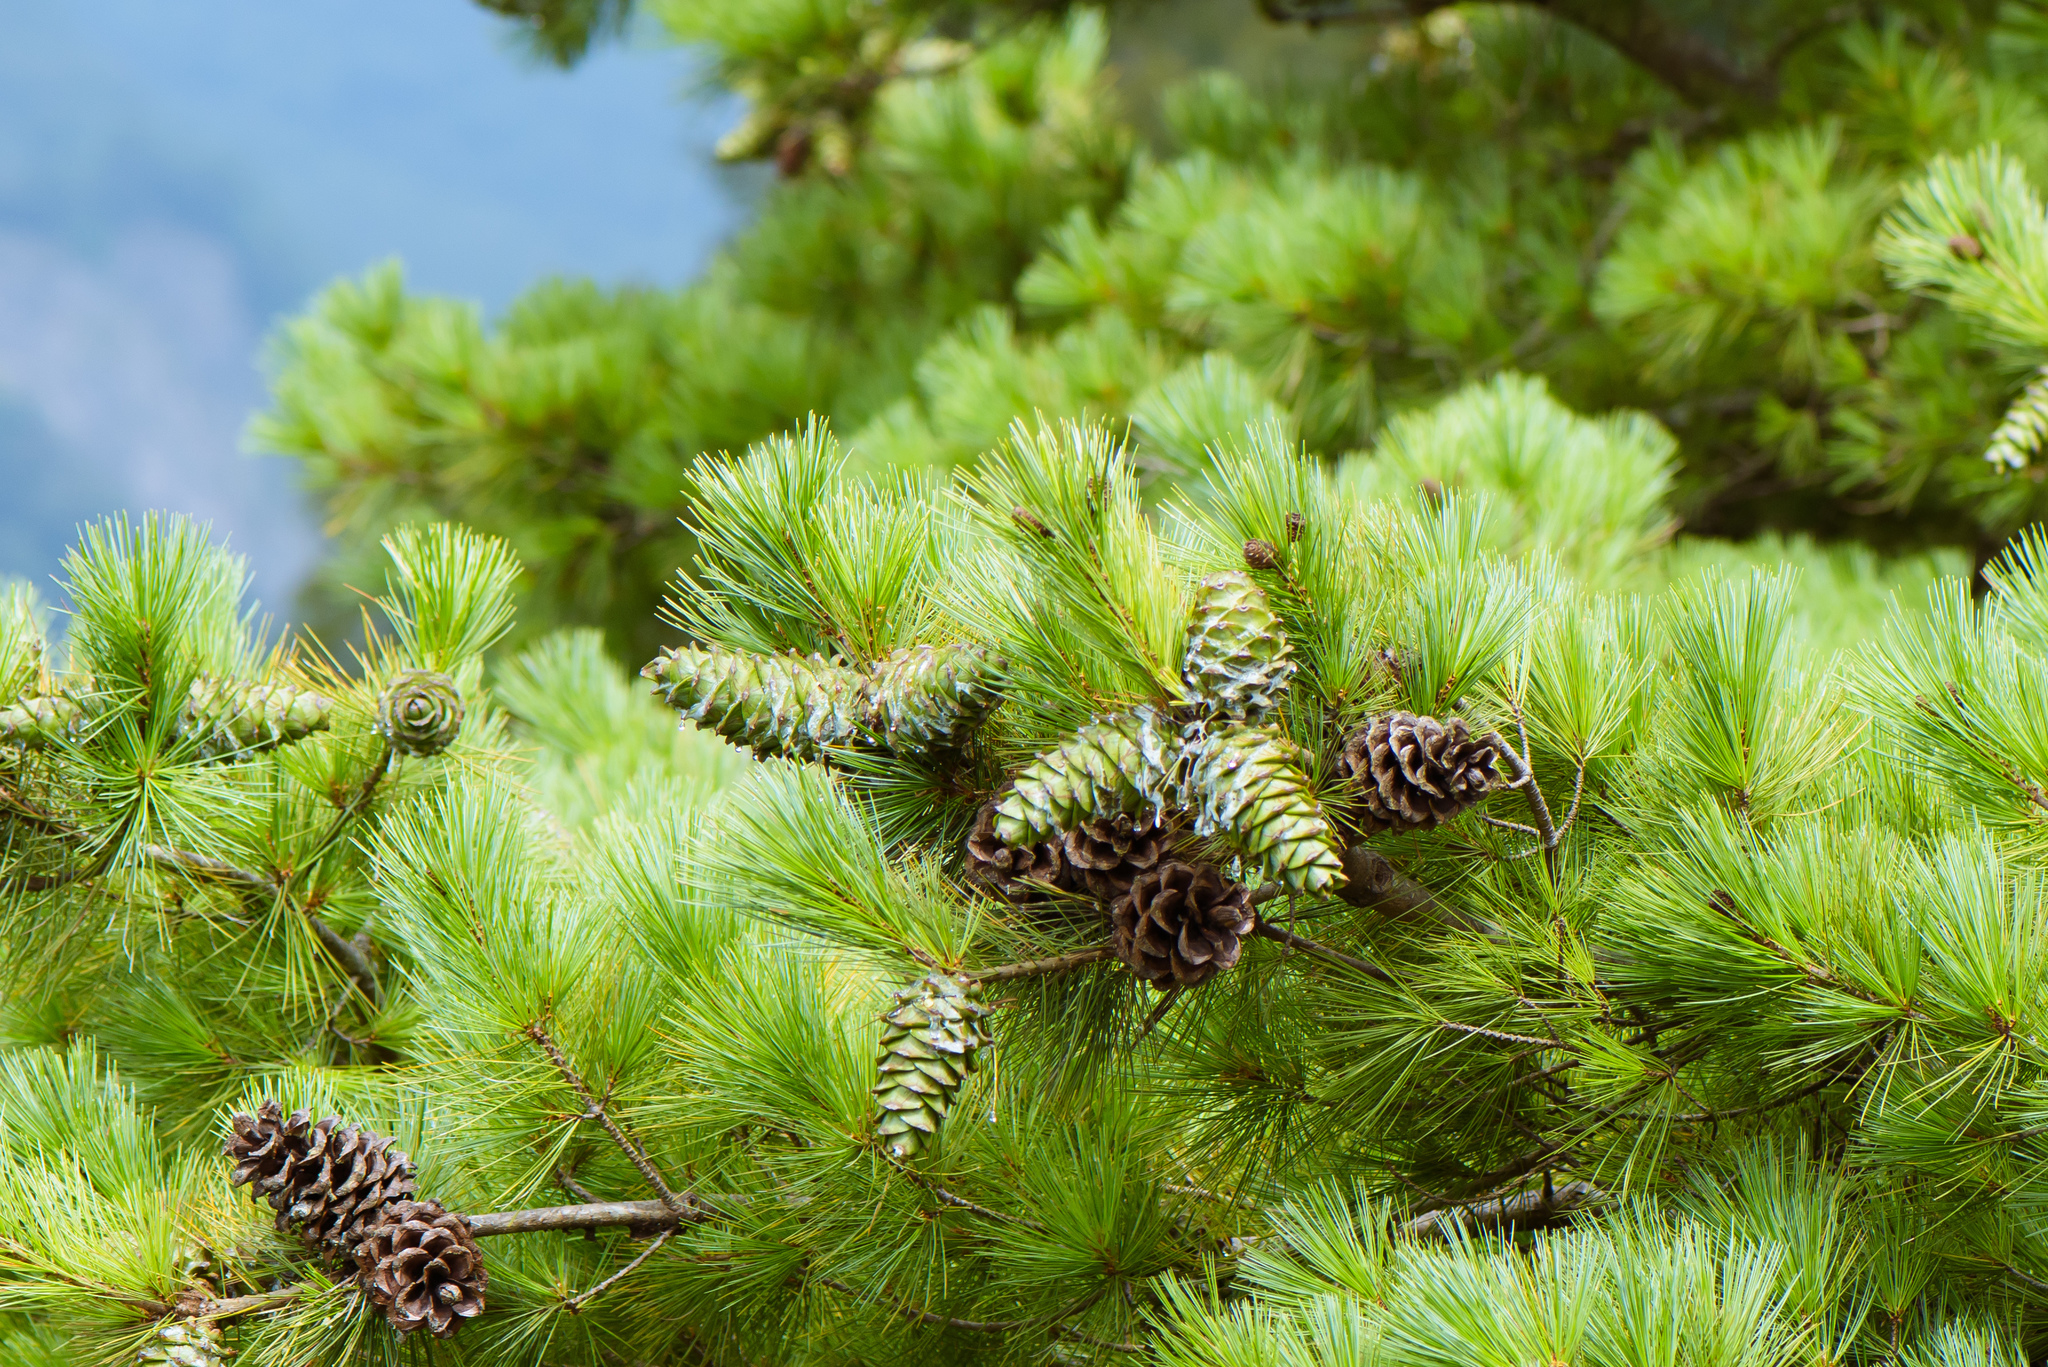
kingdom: Plantae
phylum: Tracheophyta
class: Pinopsida
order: Pinales
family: Pinaceae
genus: Pinus
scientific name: Pinus armandii
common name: Armand's pine
